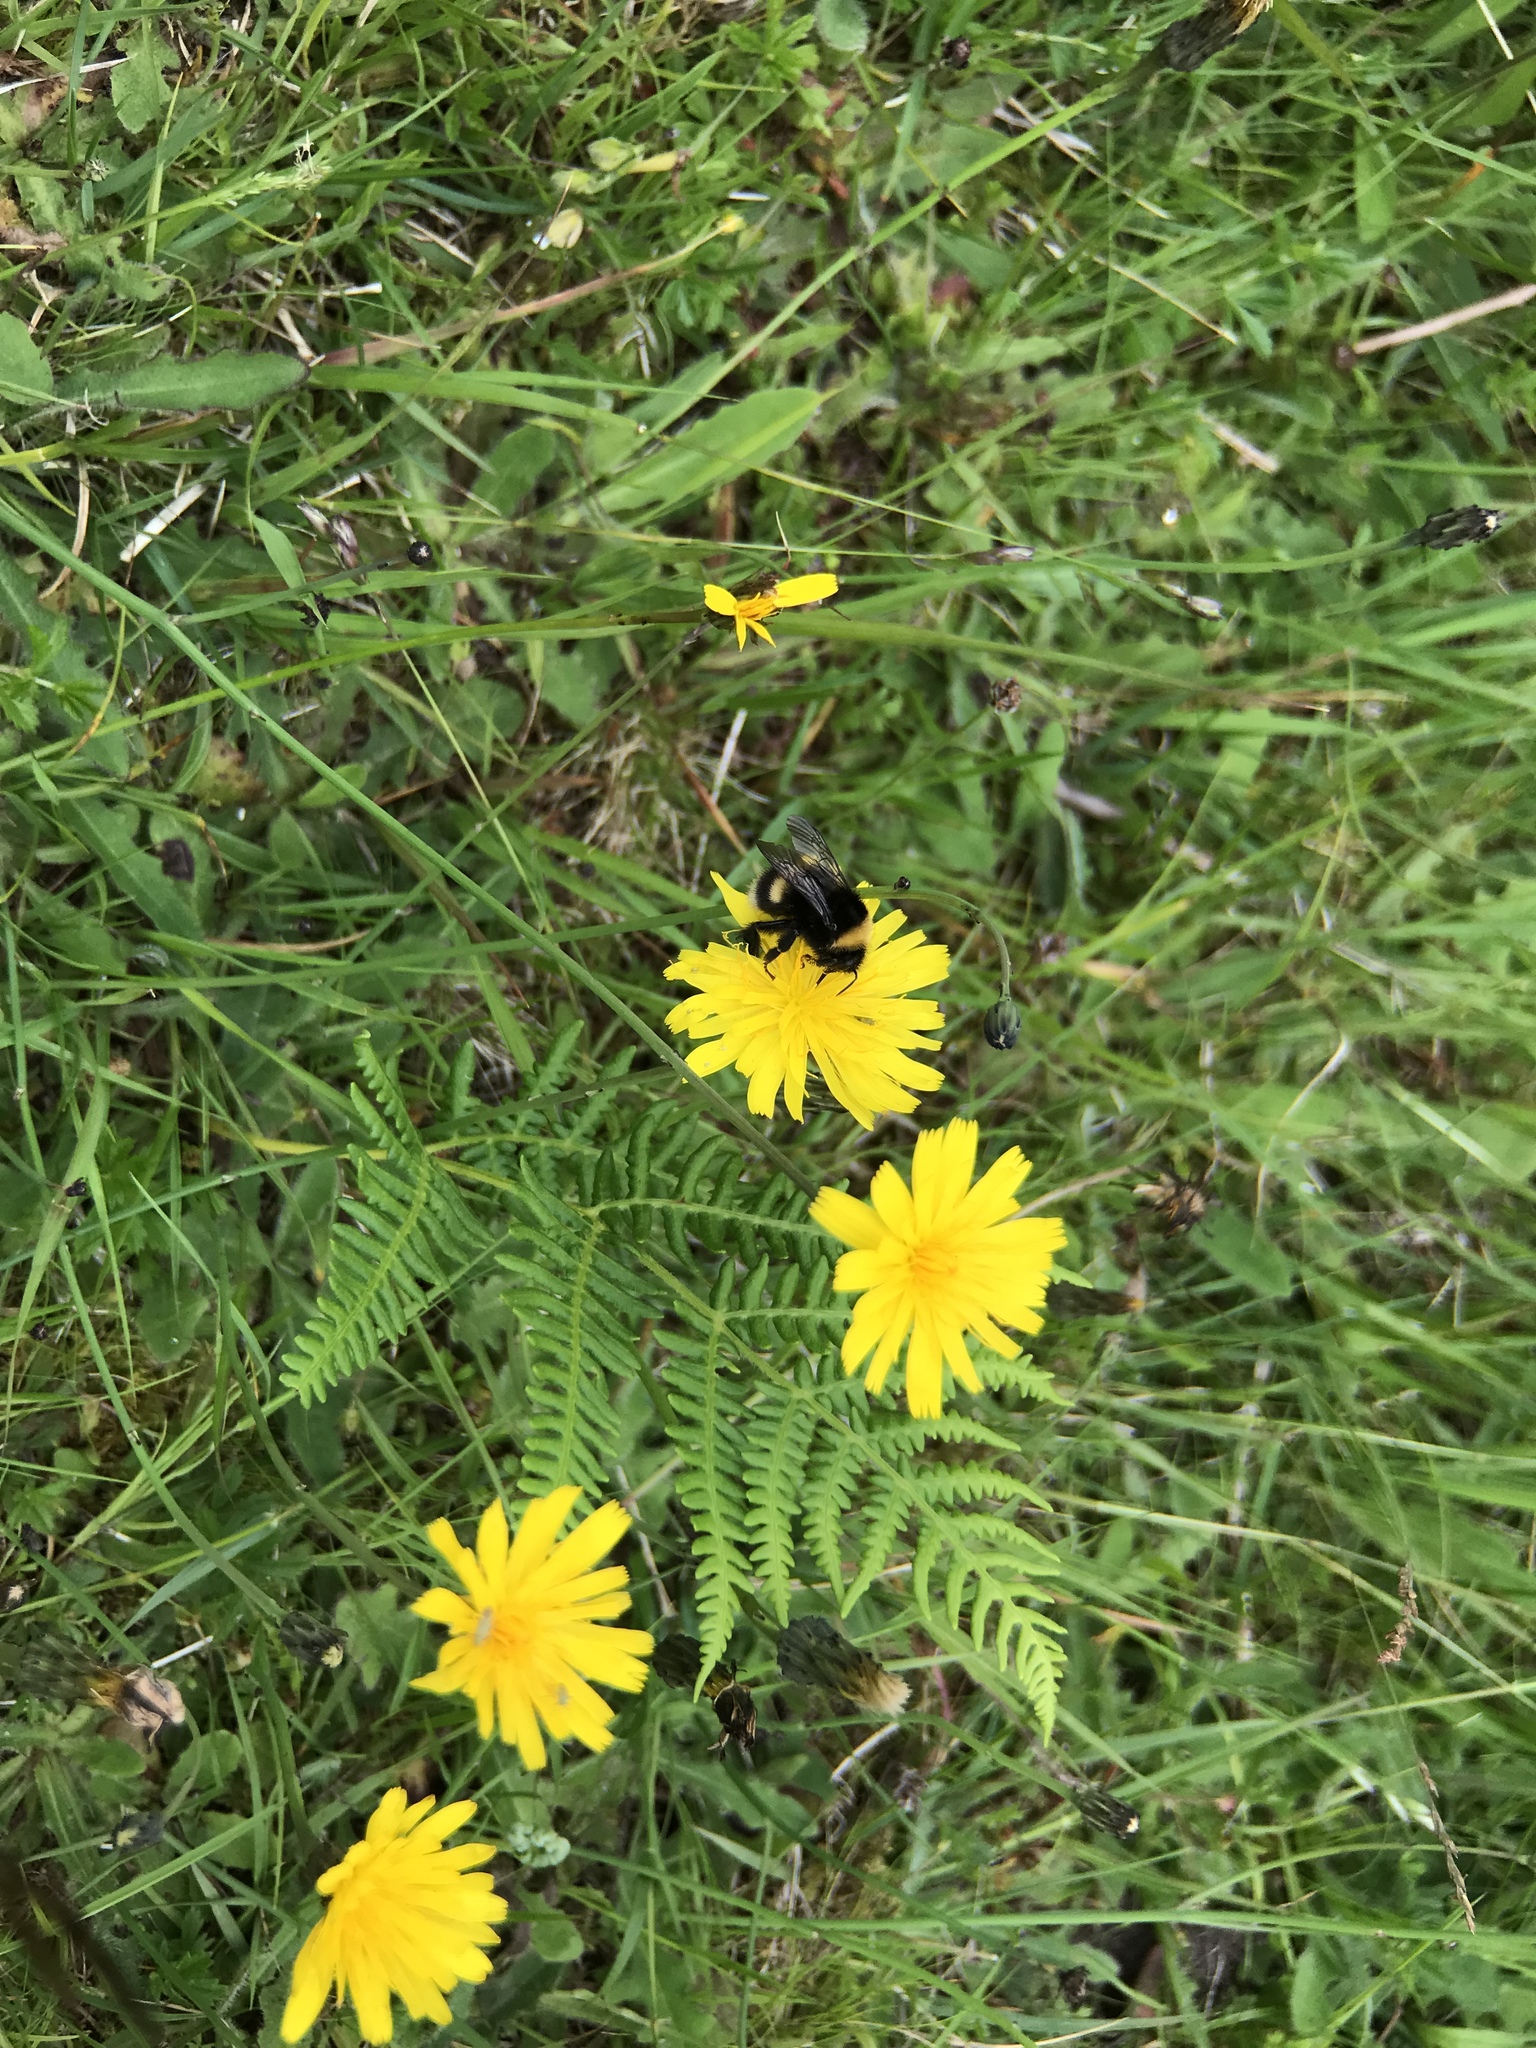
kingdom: Plantae
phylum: Tracheophyta
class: Magnoliopsida
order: Asterales
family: Asteraceae
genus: Hypochaeris
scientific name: Hypochaeris radicata
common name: Flatweed
